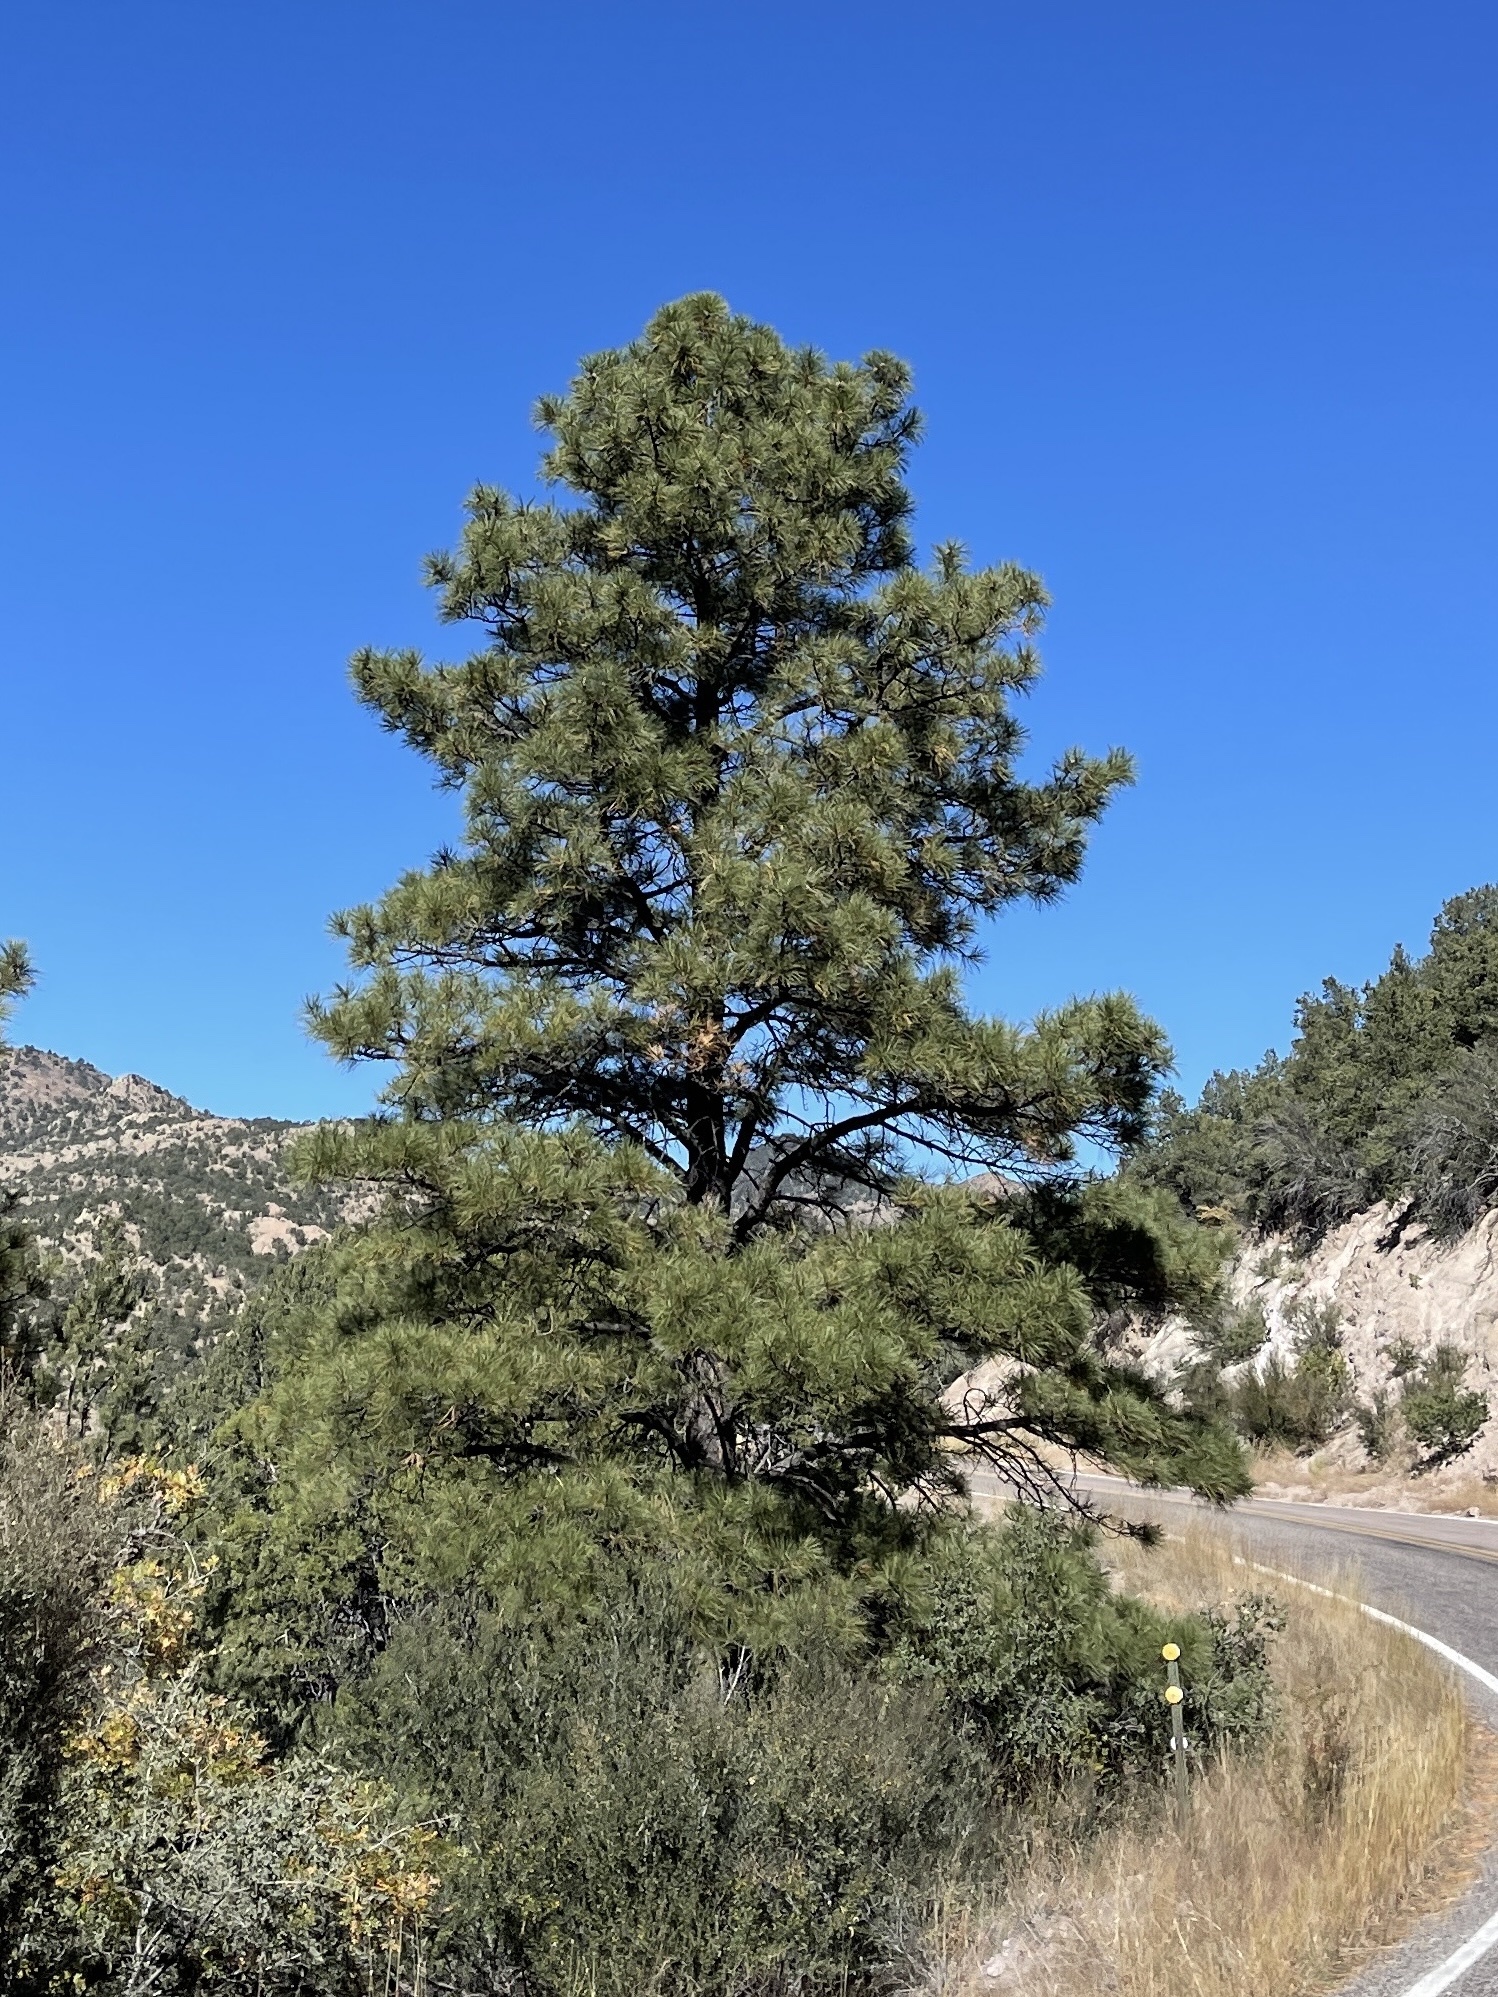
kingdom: Plantae
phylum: Tracheophyta
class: Pinopsida
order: Pinales
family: Pinaceae
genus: Pinus
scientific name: Pinus ponderosa
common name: Western yellow-pine
